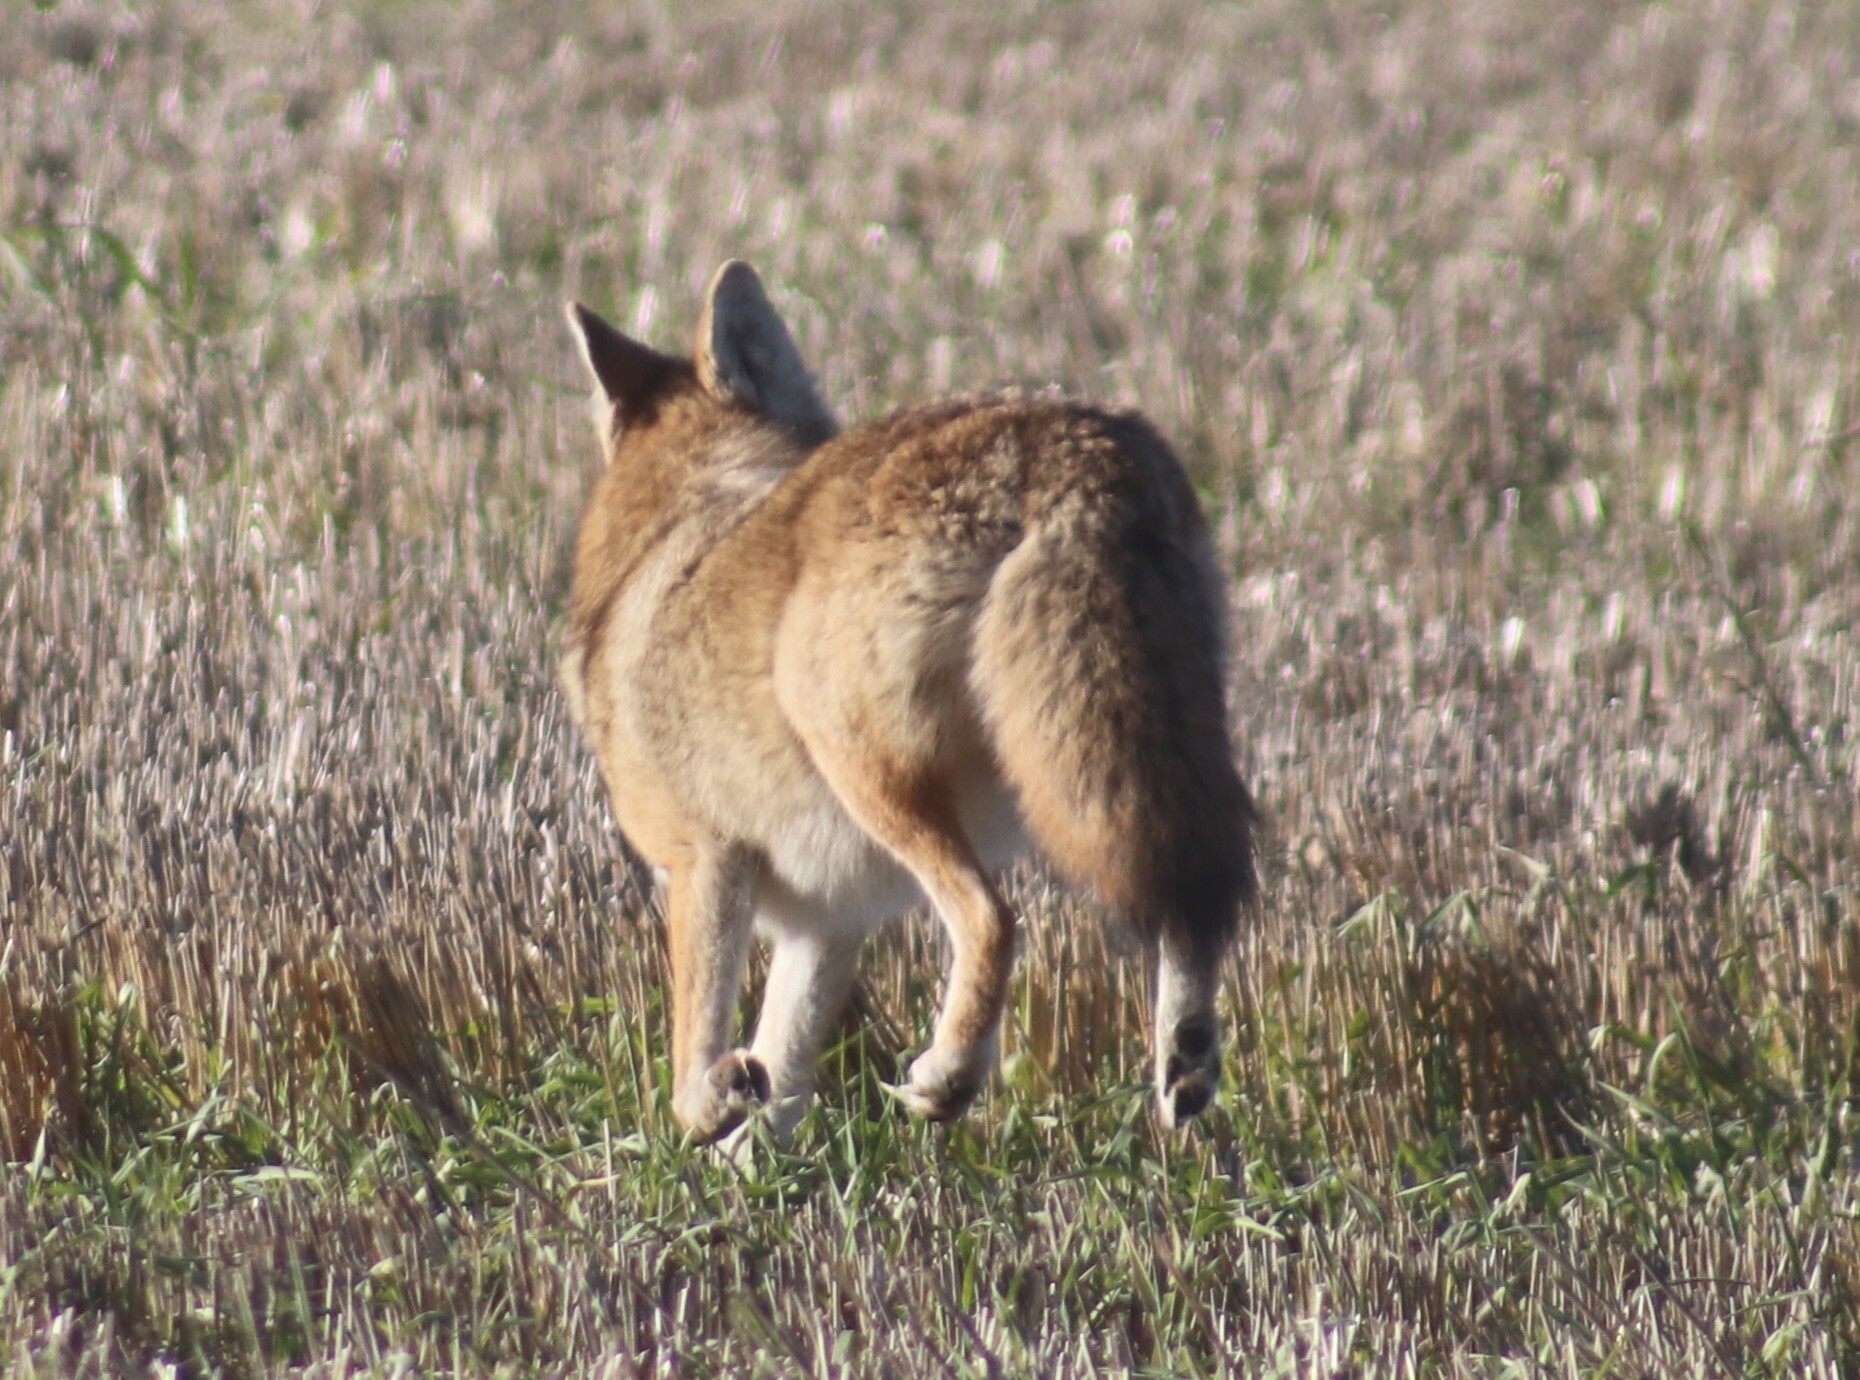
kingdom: Animalia
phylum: Chordata
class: Mammalia
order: Carnivora
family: Canidae
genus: Canis
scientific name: Canis latrans
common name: Coyote
